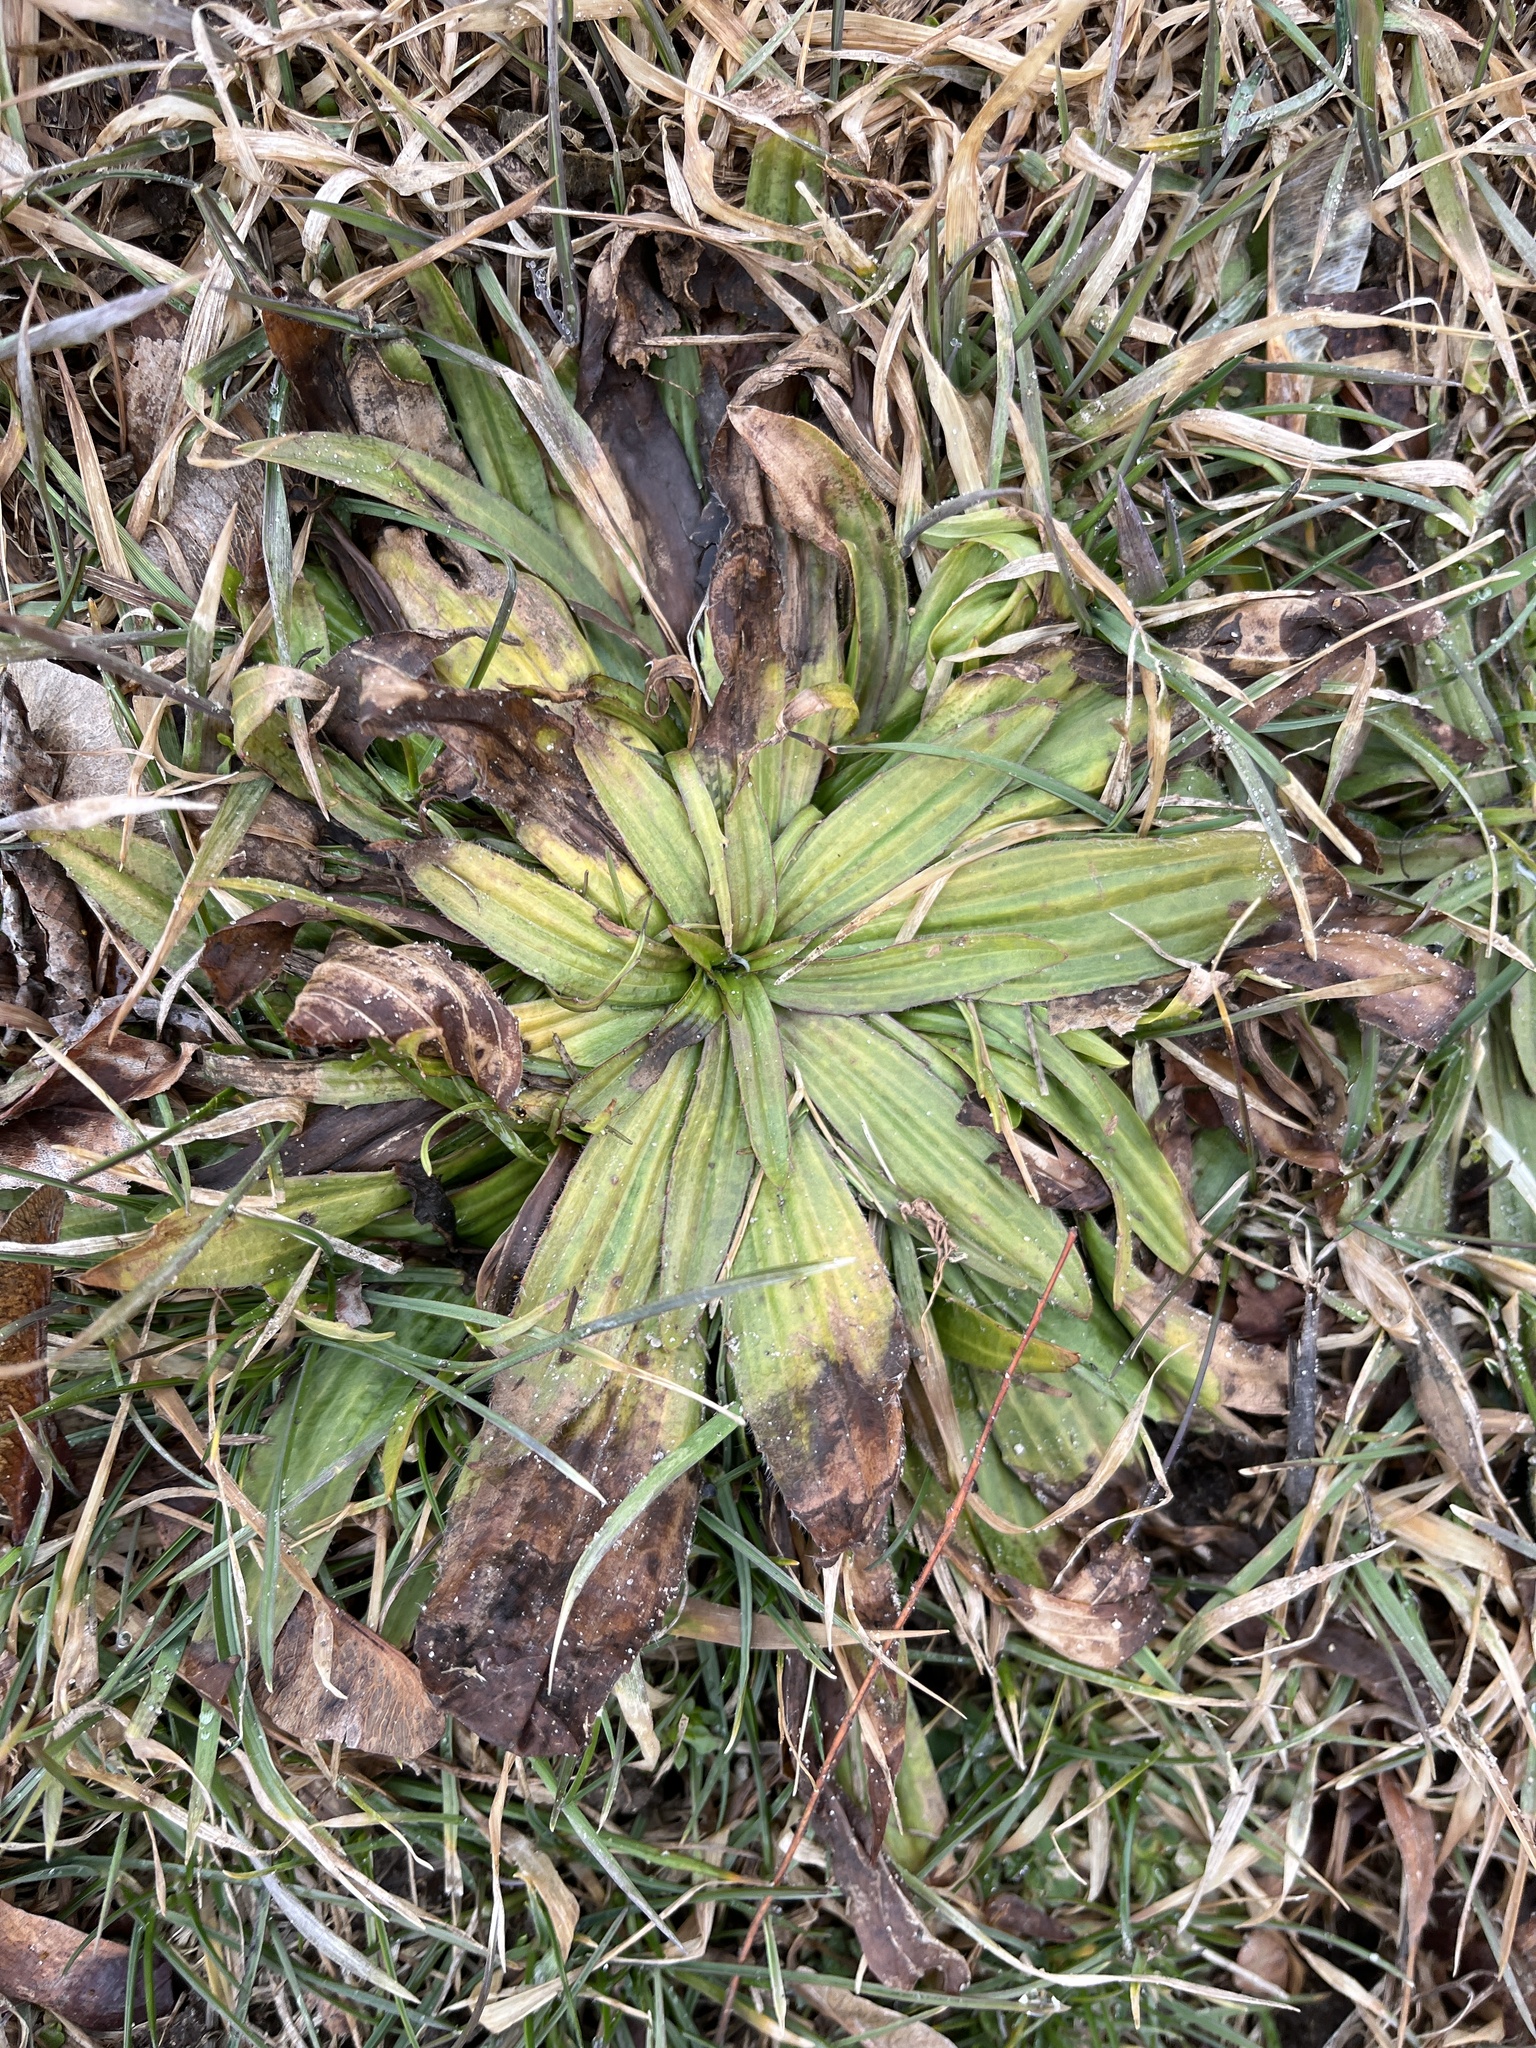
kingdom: Plantae
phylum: Tracheophyta
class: Magnoliopsida
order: Lamiales
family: Plantaginaceae
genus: Plantago
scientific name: Plantago lanceolata
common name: Ribwort plantain
